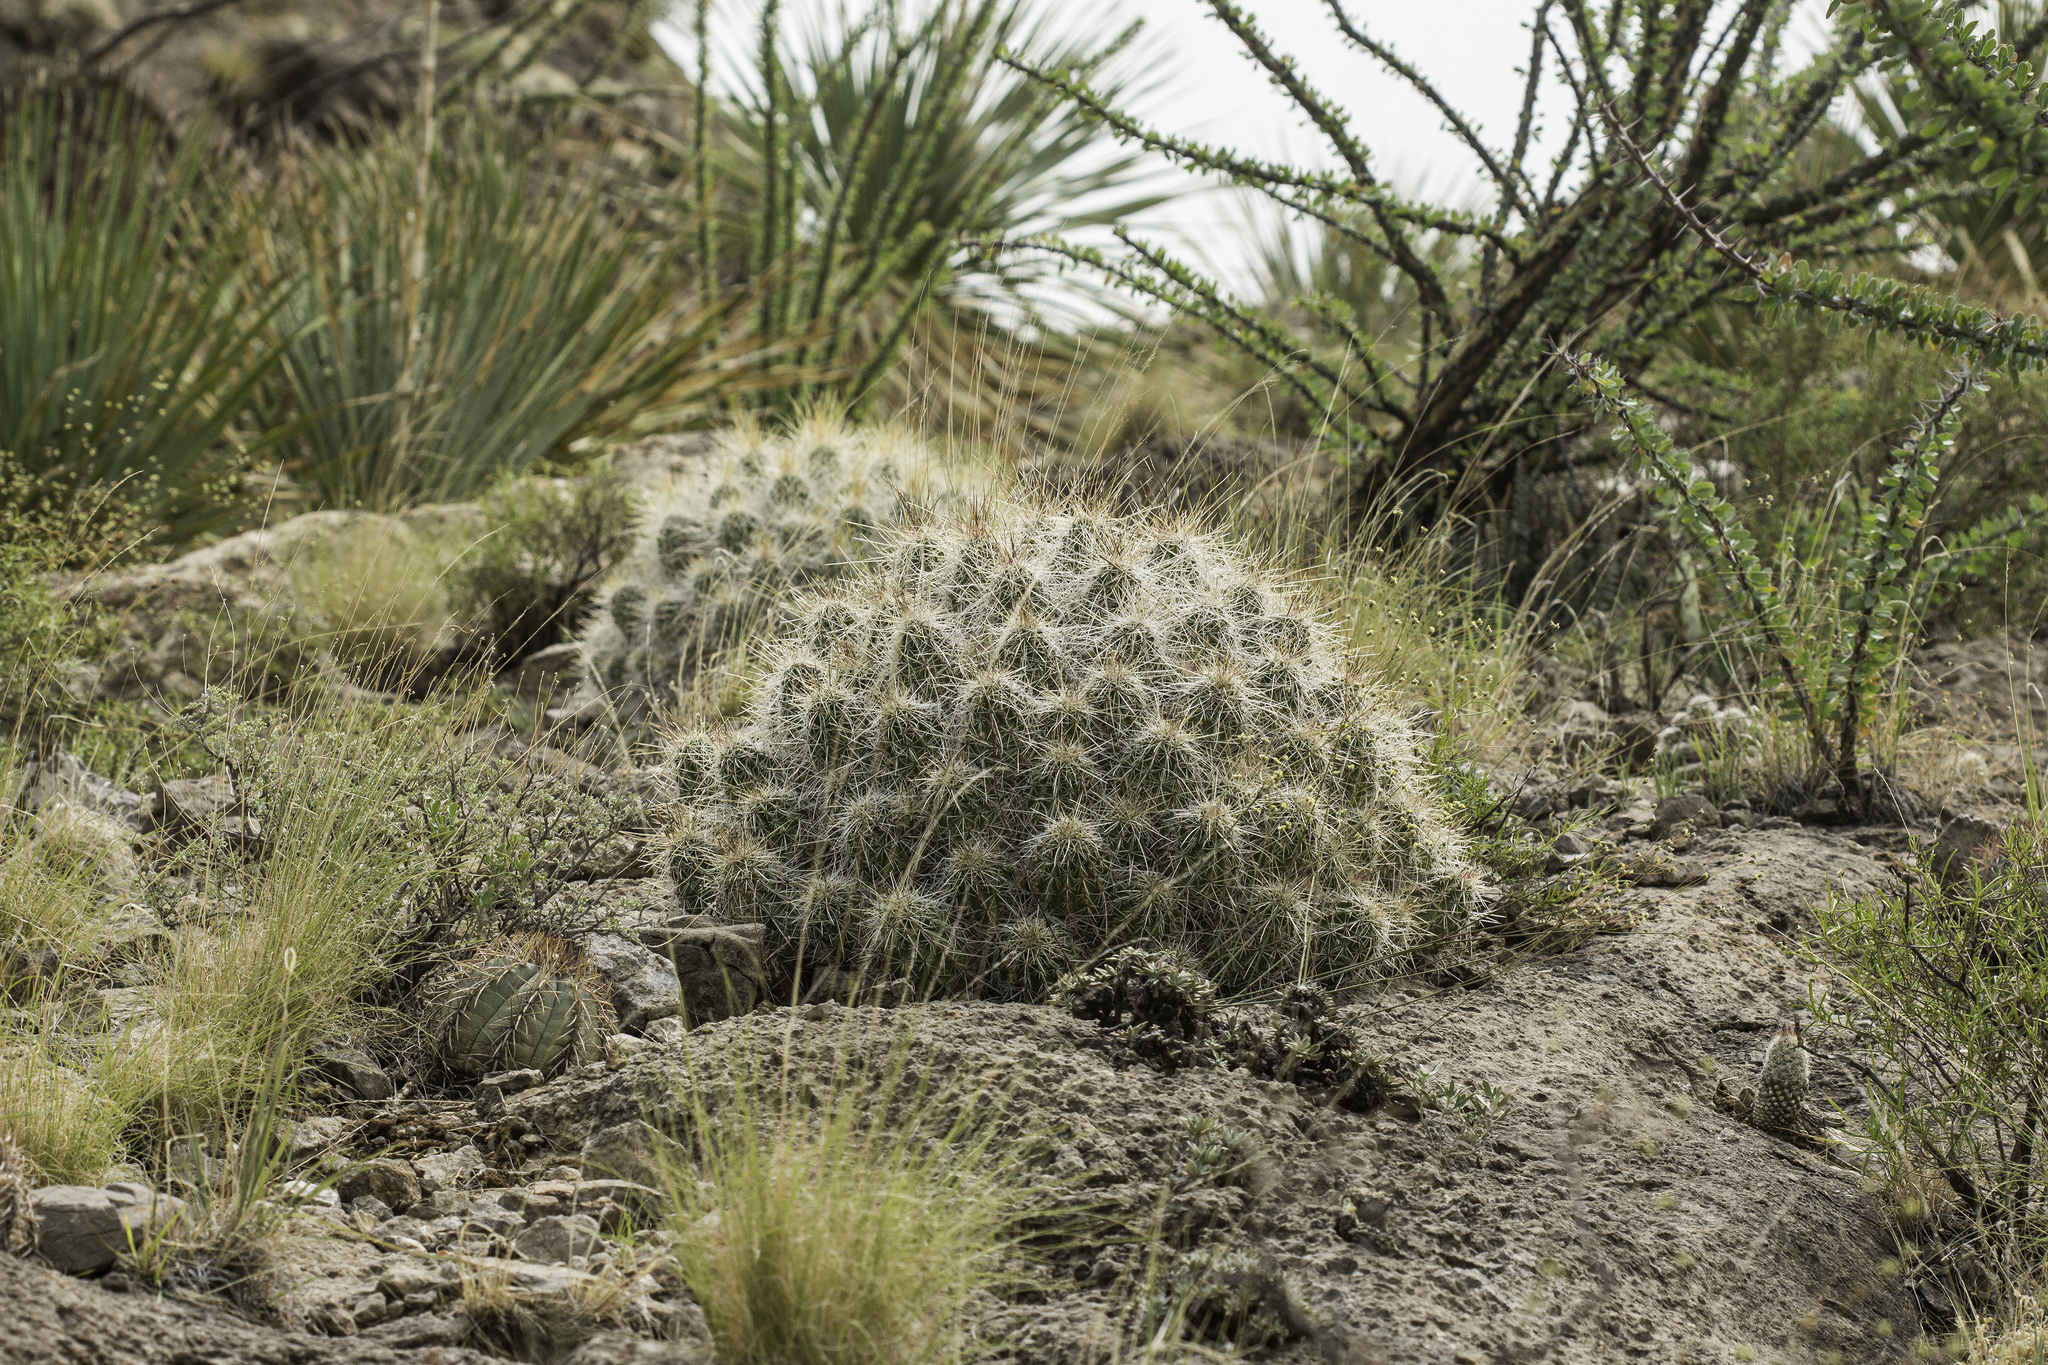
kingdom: Plantae
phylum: Tracheophyta
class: Magnoliopsida
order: Caryophyllales
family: Cactaceae
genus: Echinocereus
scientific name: Echinocereus stramineus
